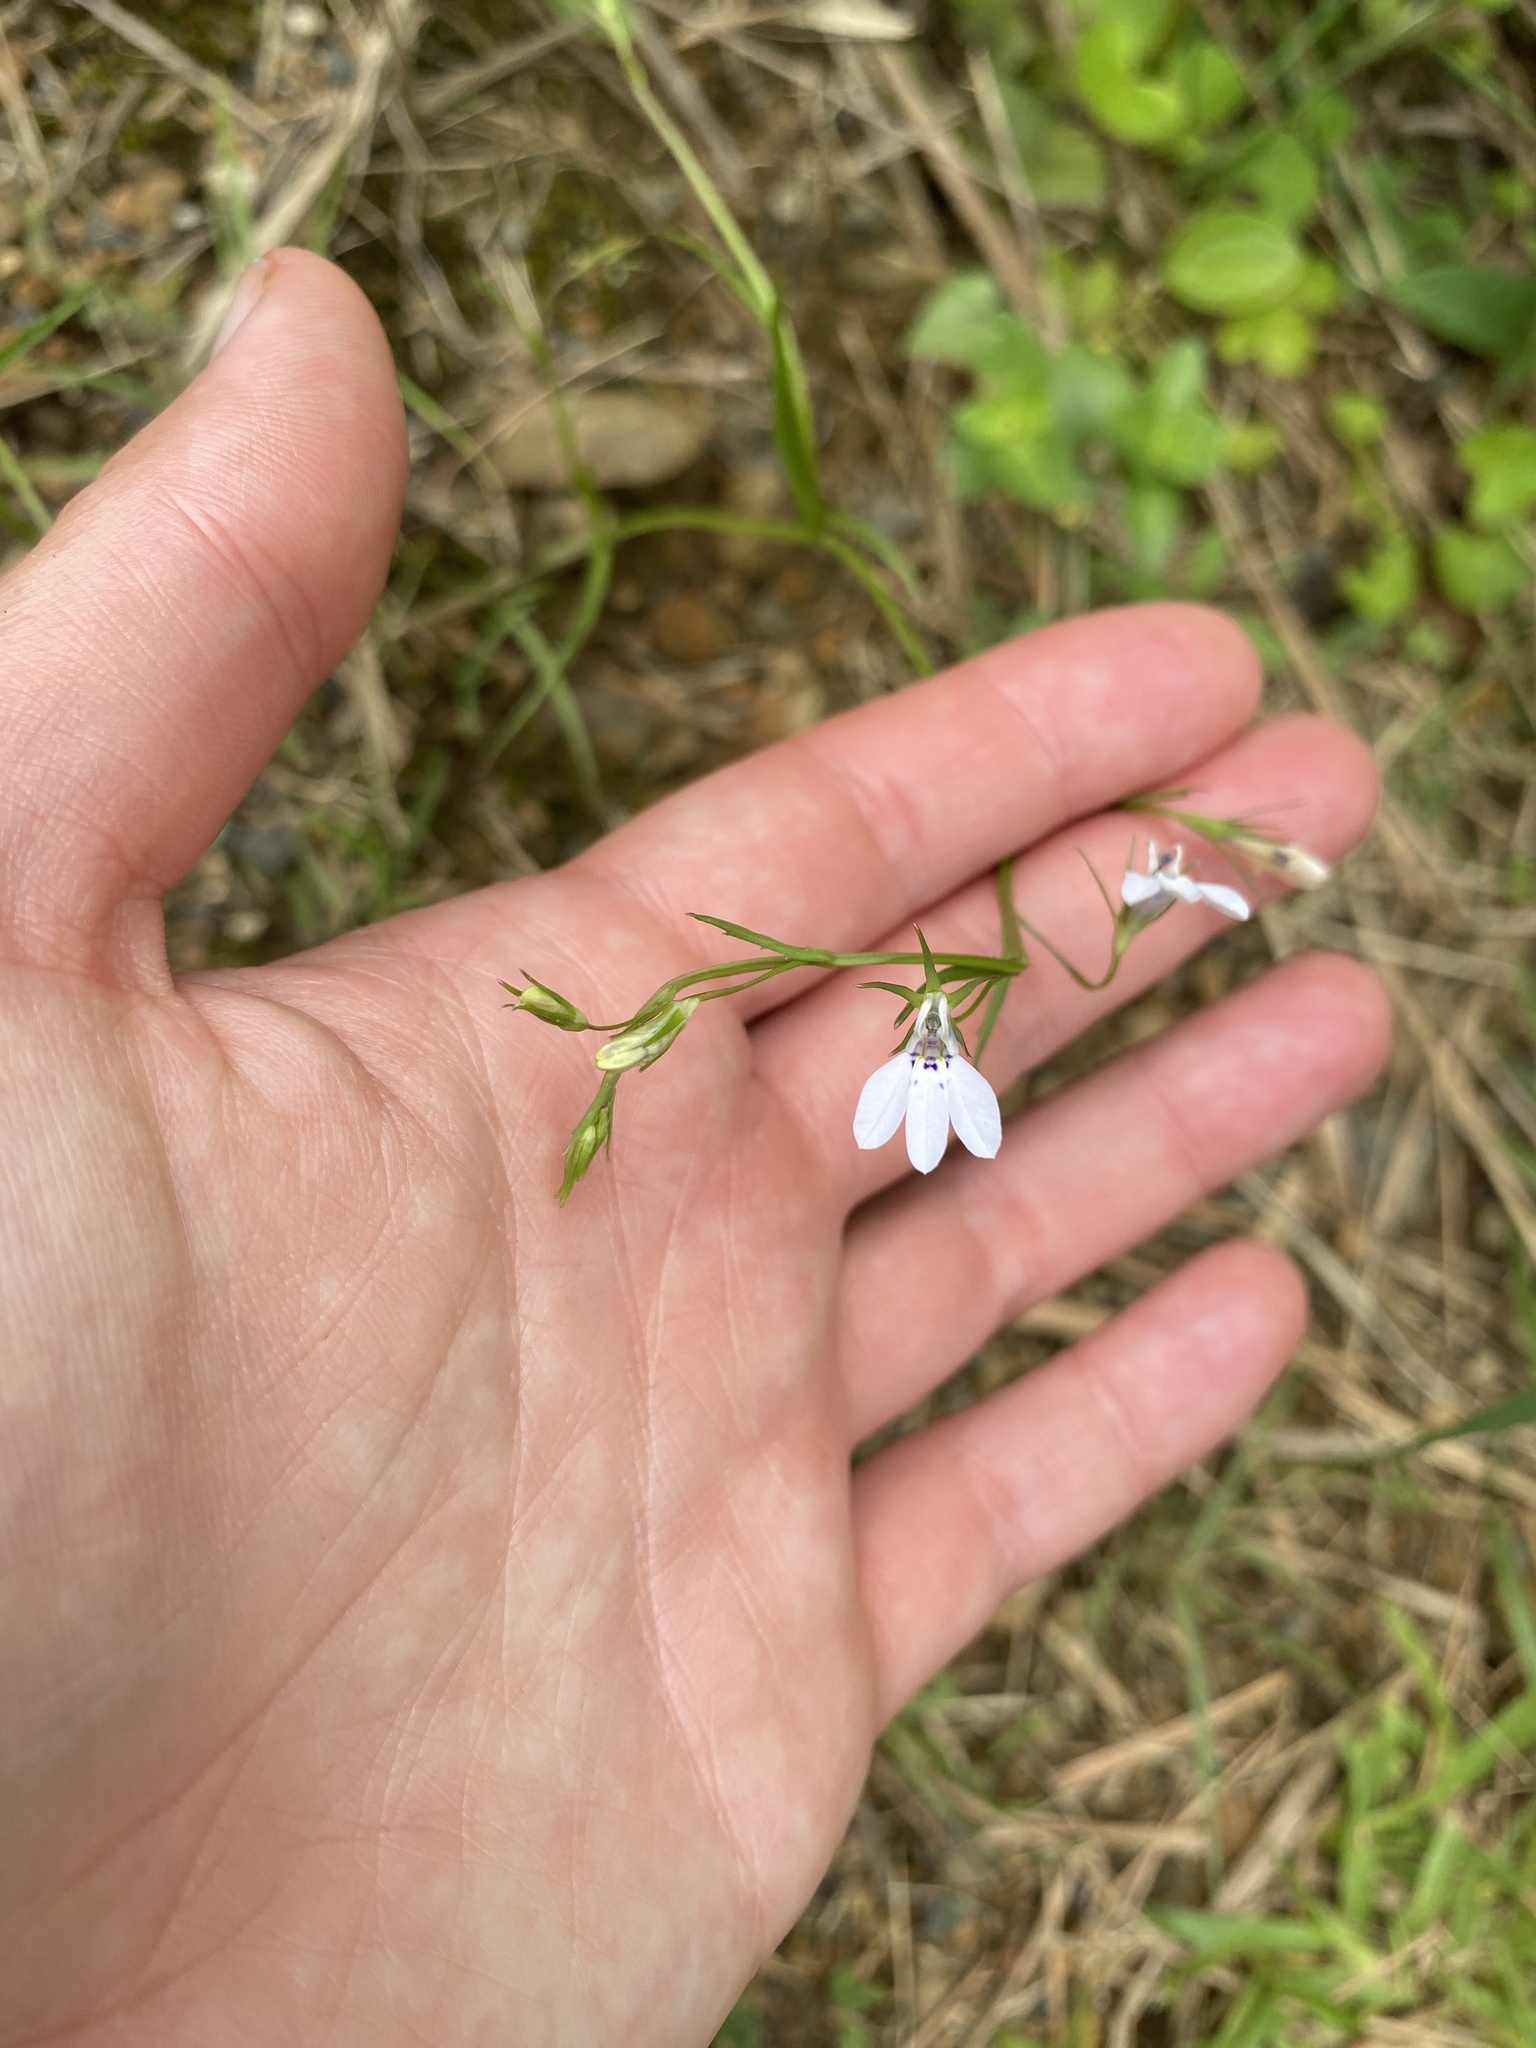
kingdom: Plantae
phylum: Tracheophyta
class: Magnoliopsida
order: Asterales
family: Campanulaceae
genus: Lobelia
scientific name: Lobelia flaccida
